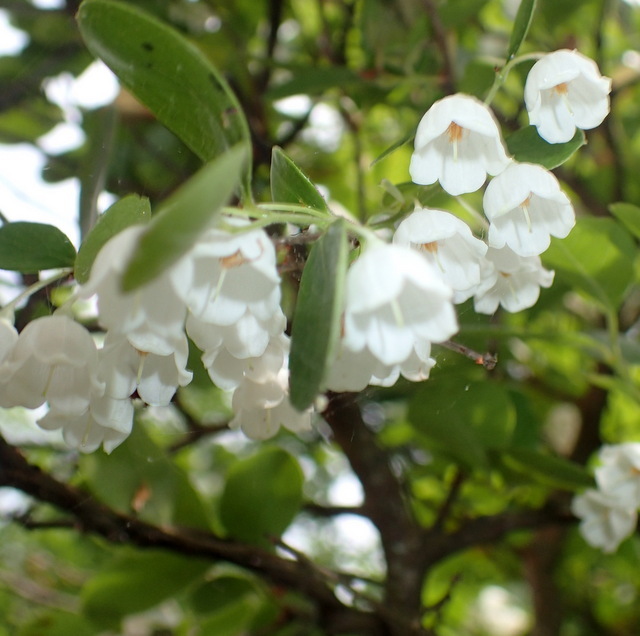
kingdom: Plantae
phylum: Tracheophyta
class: Magnoliopsida
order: Ericales
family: Ericaceae
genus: Vaccinium
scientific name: Vaccinium arboreum
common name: Farkleberry
